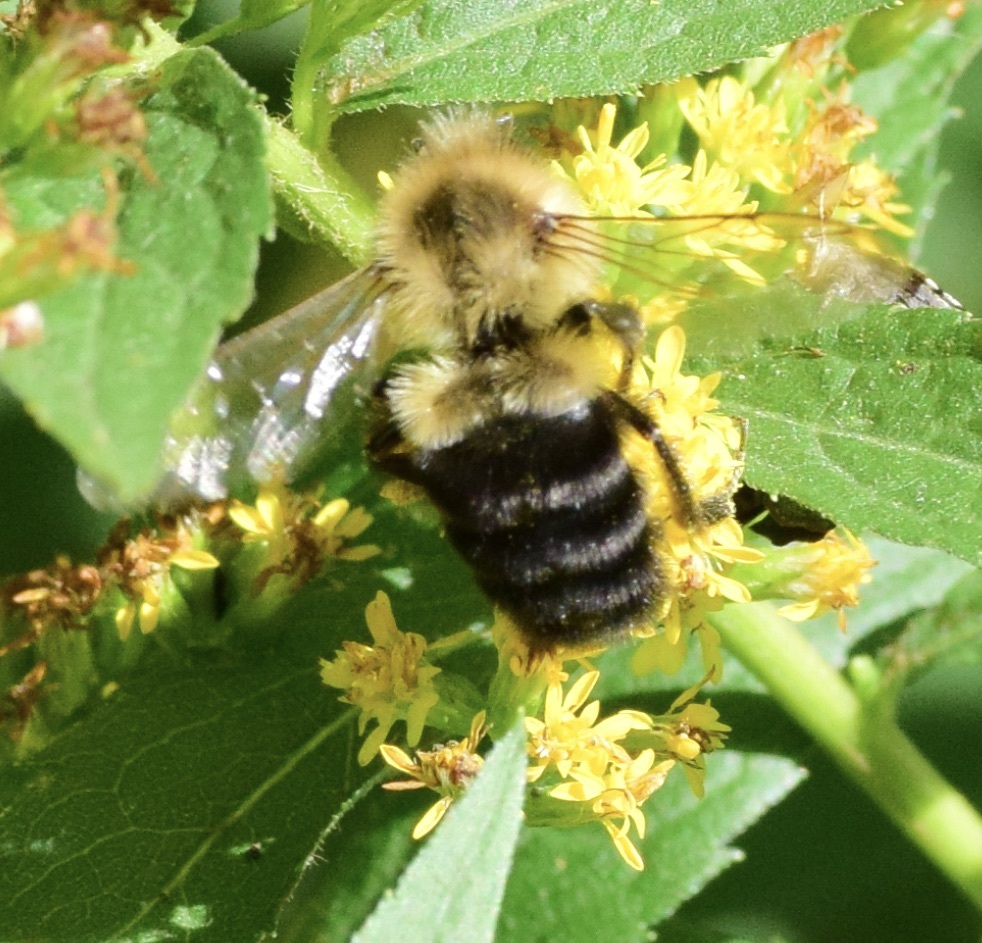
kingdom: Animalia
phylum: Arthropoda
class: Insecta
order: Hymenoptera
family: Apidae
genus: Bombus
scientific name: Bombus impatiens
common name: Common eastern bumble bee
